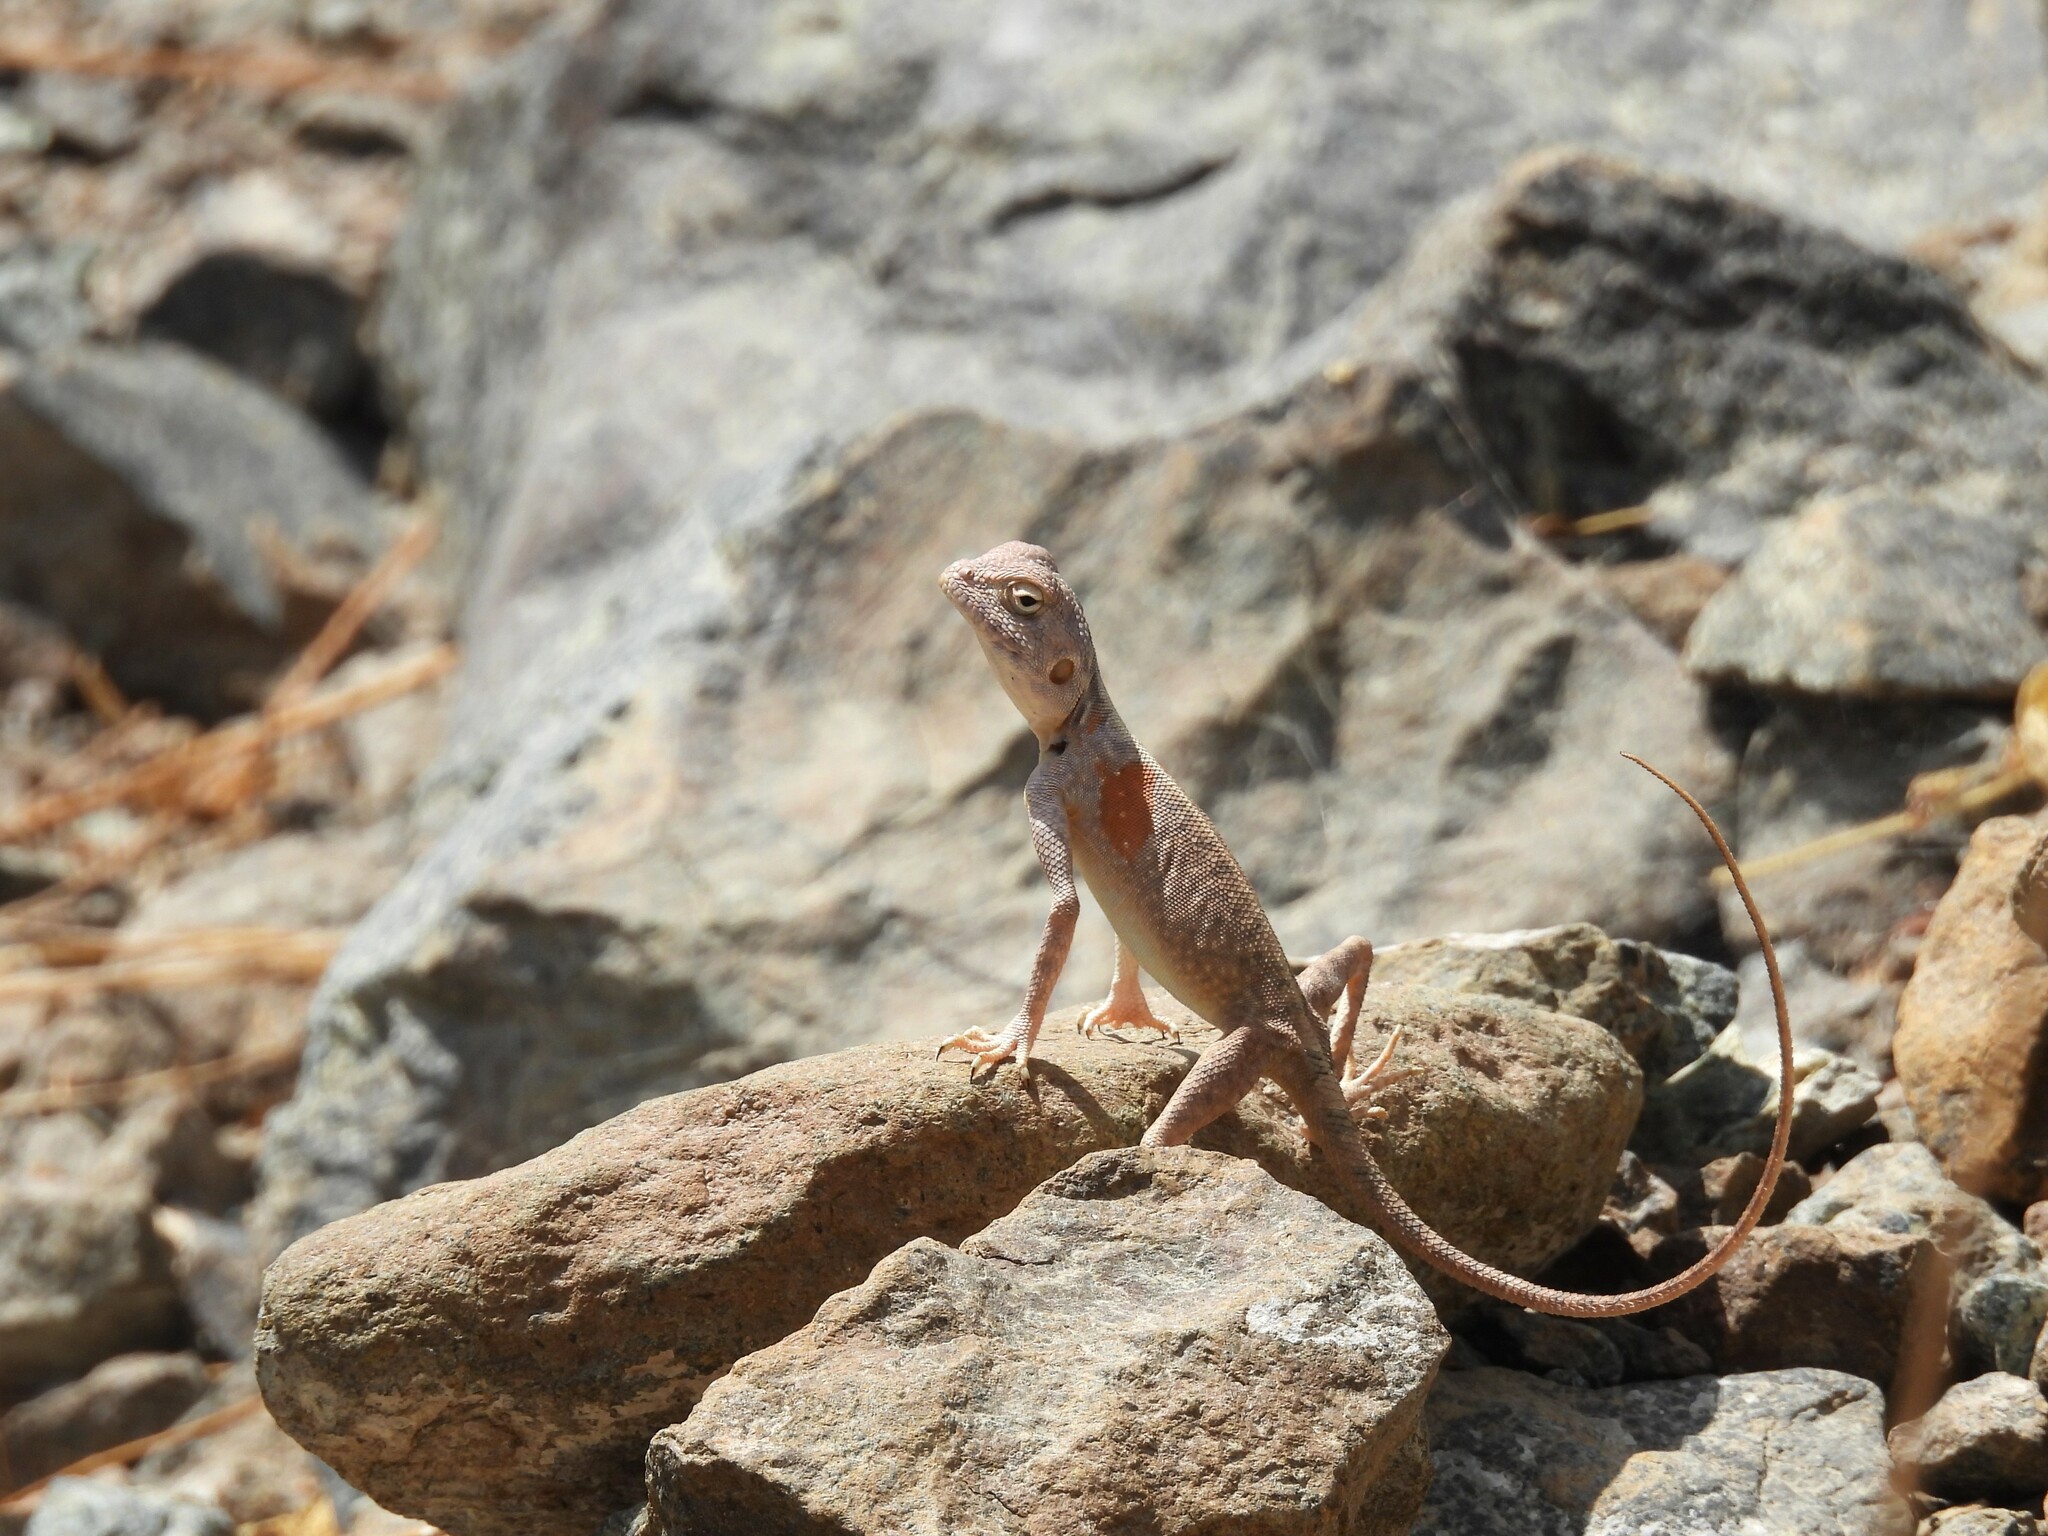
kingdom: Animalia
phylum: Chordata
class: Squamata
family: Agamidae
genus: Pseudotrapelus
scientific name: Pseudotrapelus jensvindumi
